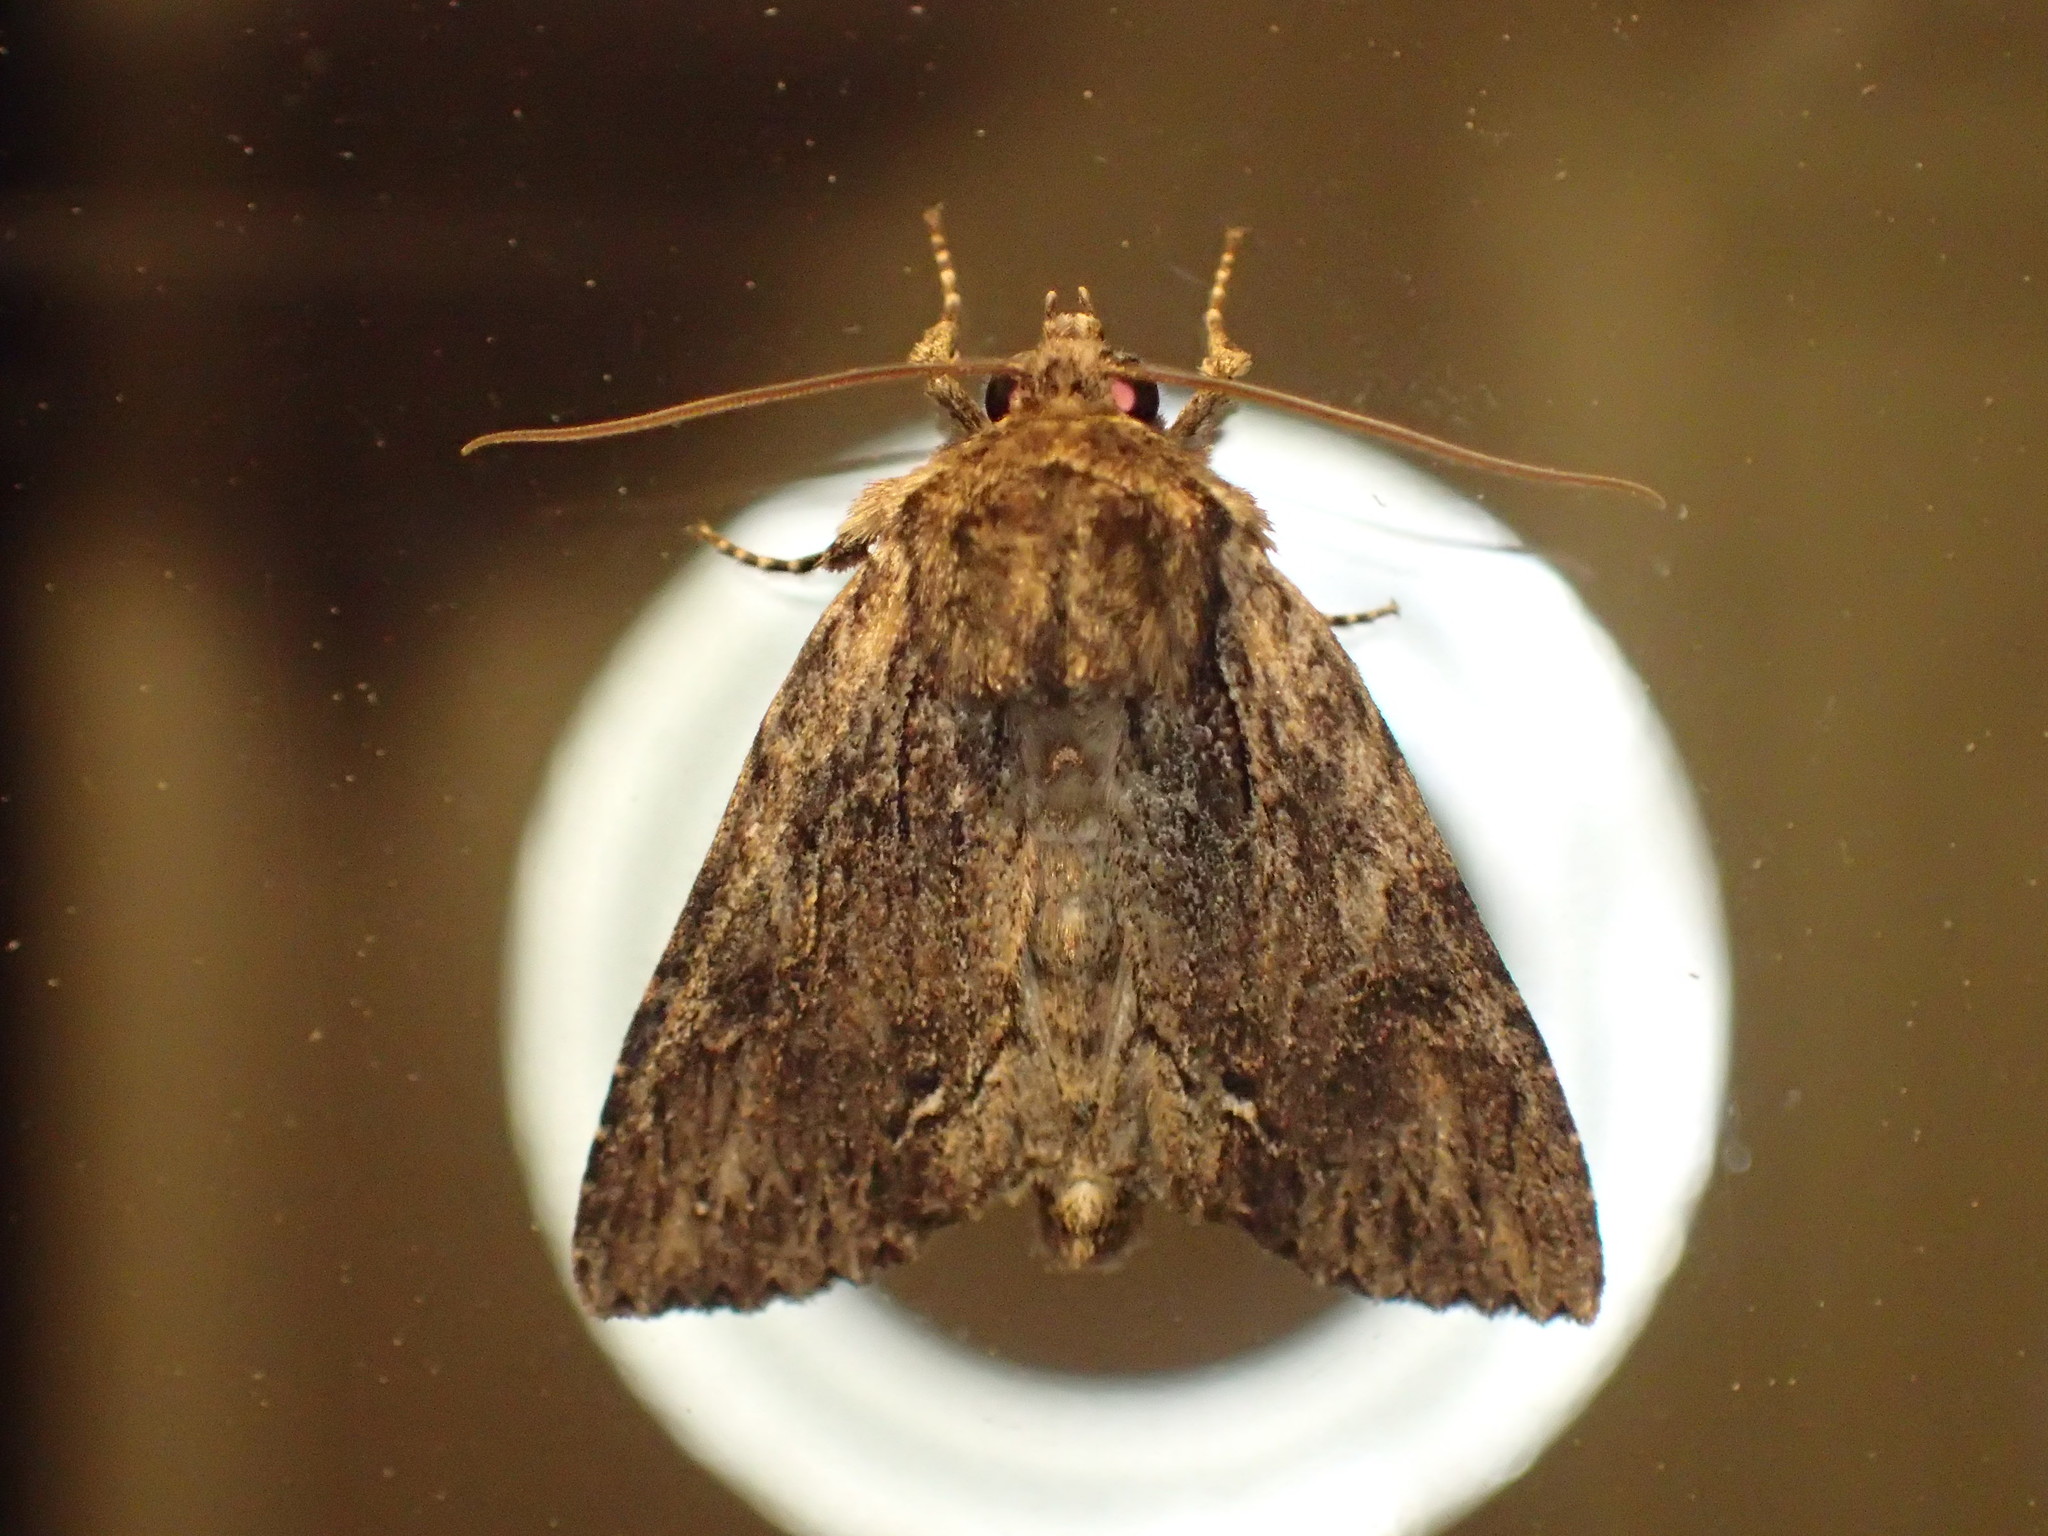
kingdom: Animalia
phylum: Arthropoda
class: Insecta
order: Lepidoptera
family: Noctuidae
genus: Achatia
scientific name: Achatia confusa
